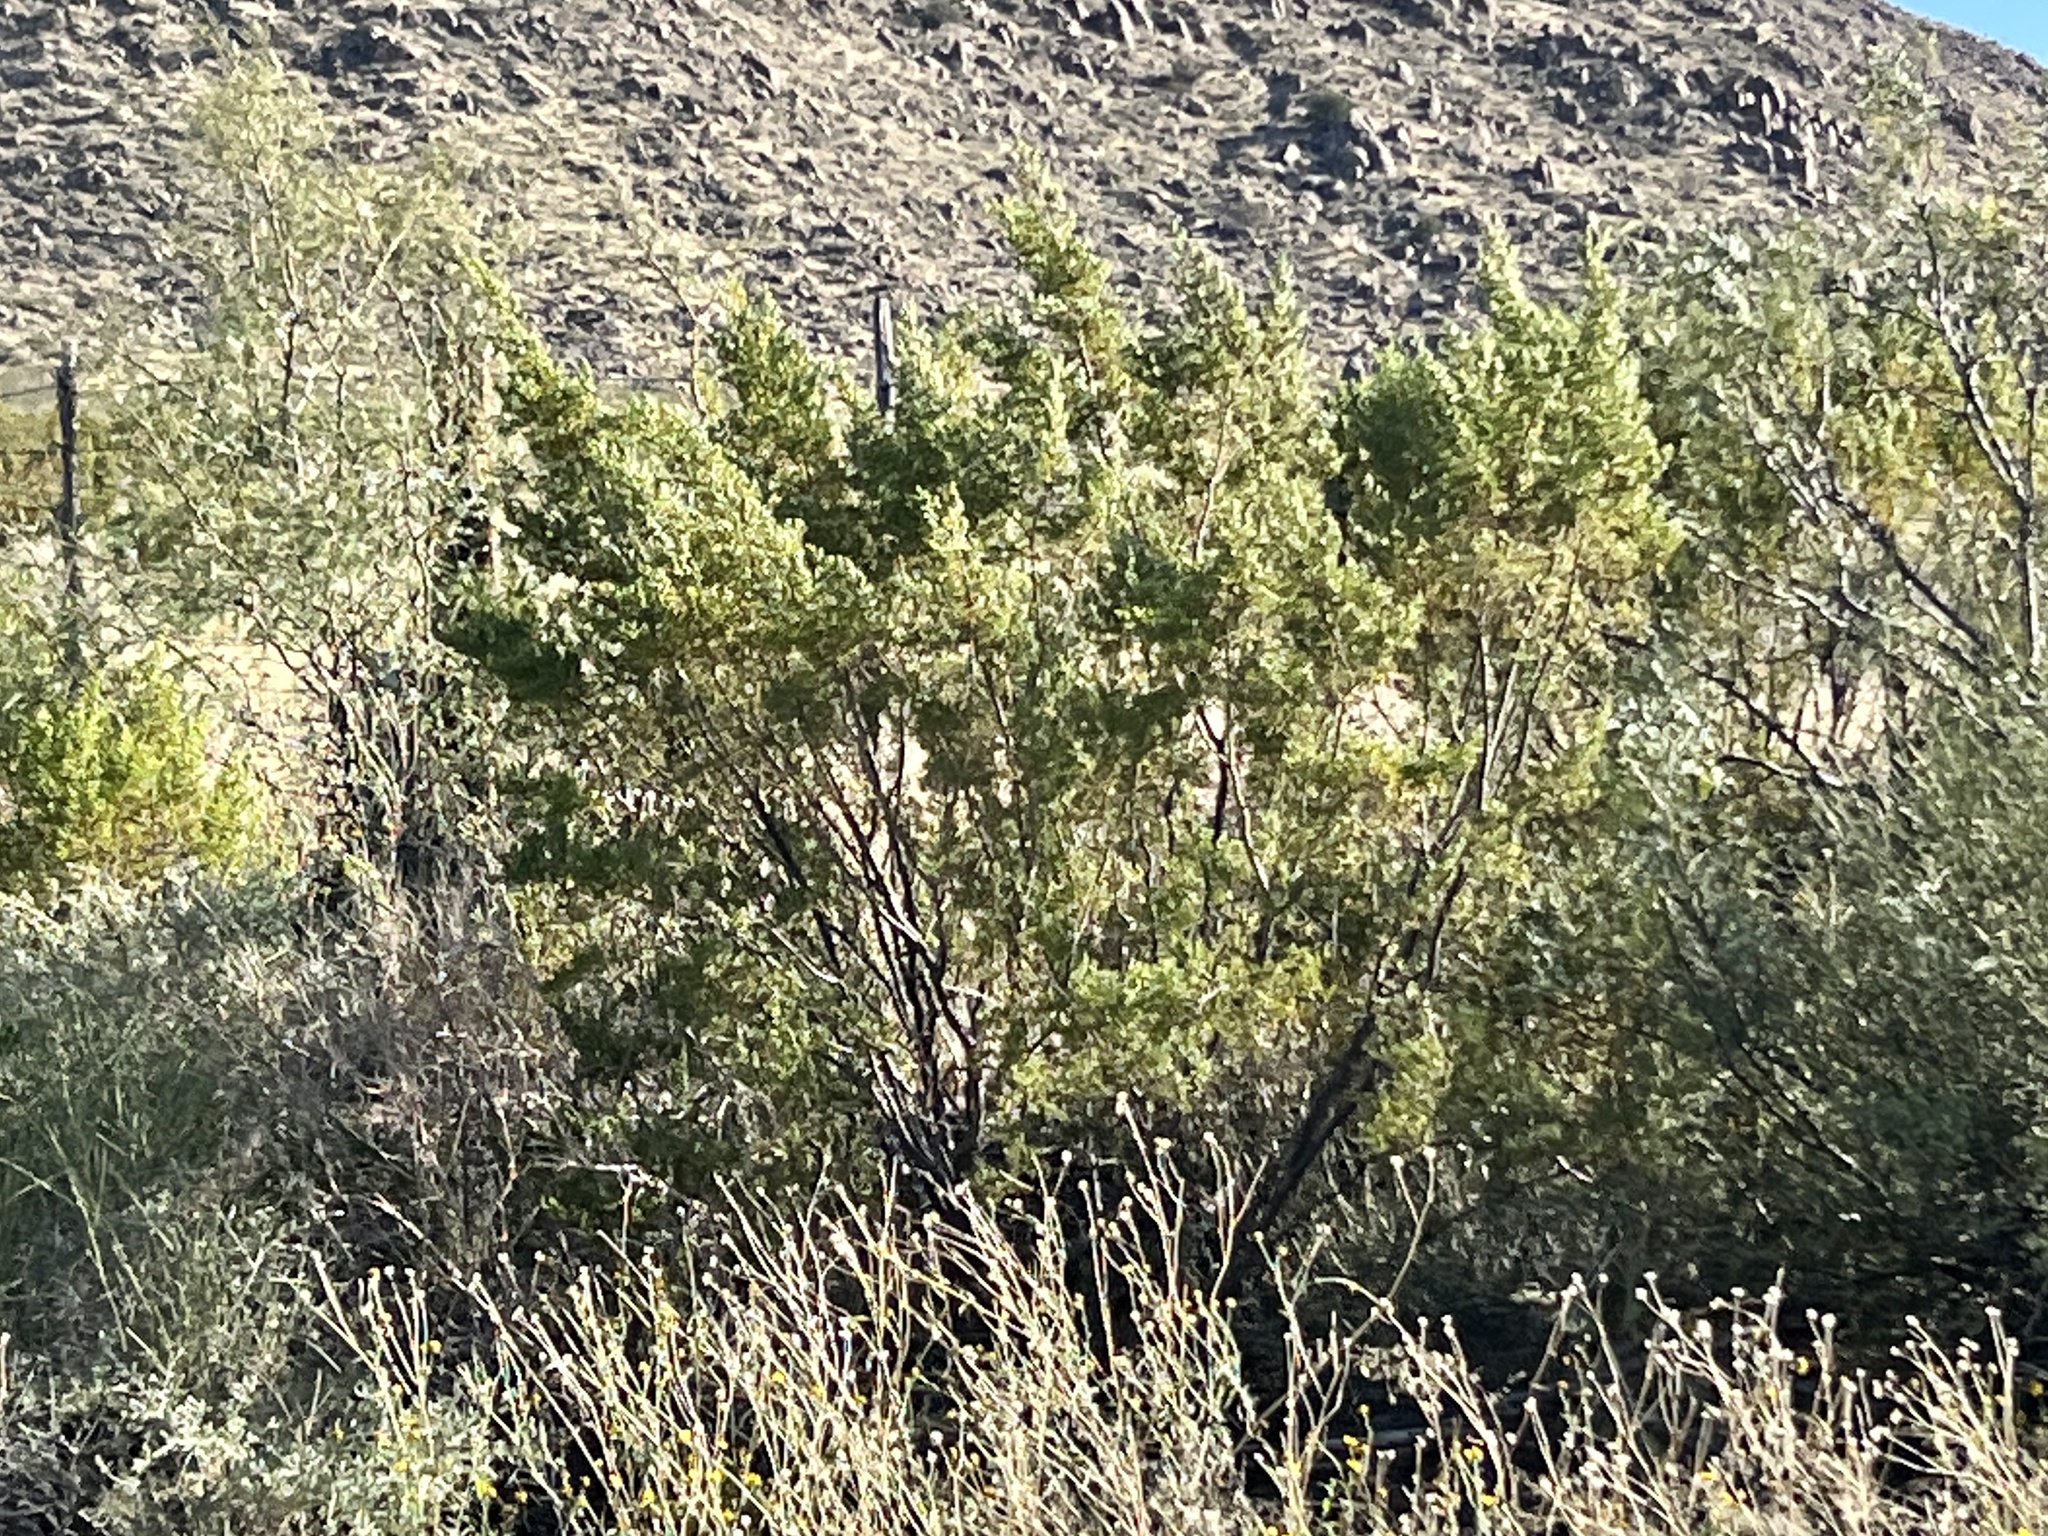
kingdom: Plantae
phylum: Tracheophyta
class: Magnoliopsida
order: Zygophyllales
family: Zygophyllaceae
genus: Larrea
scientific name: Larrea tridentata
